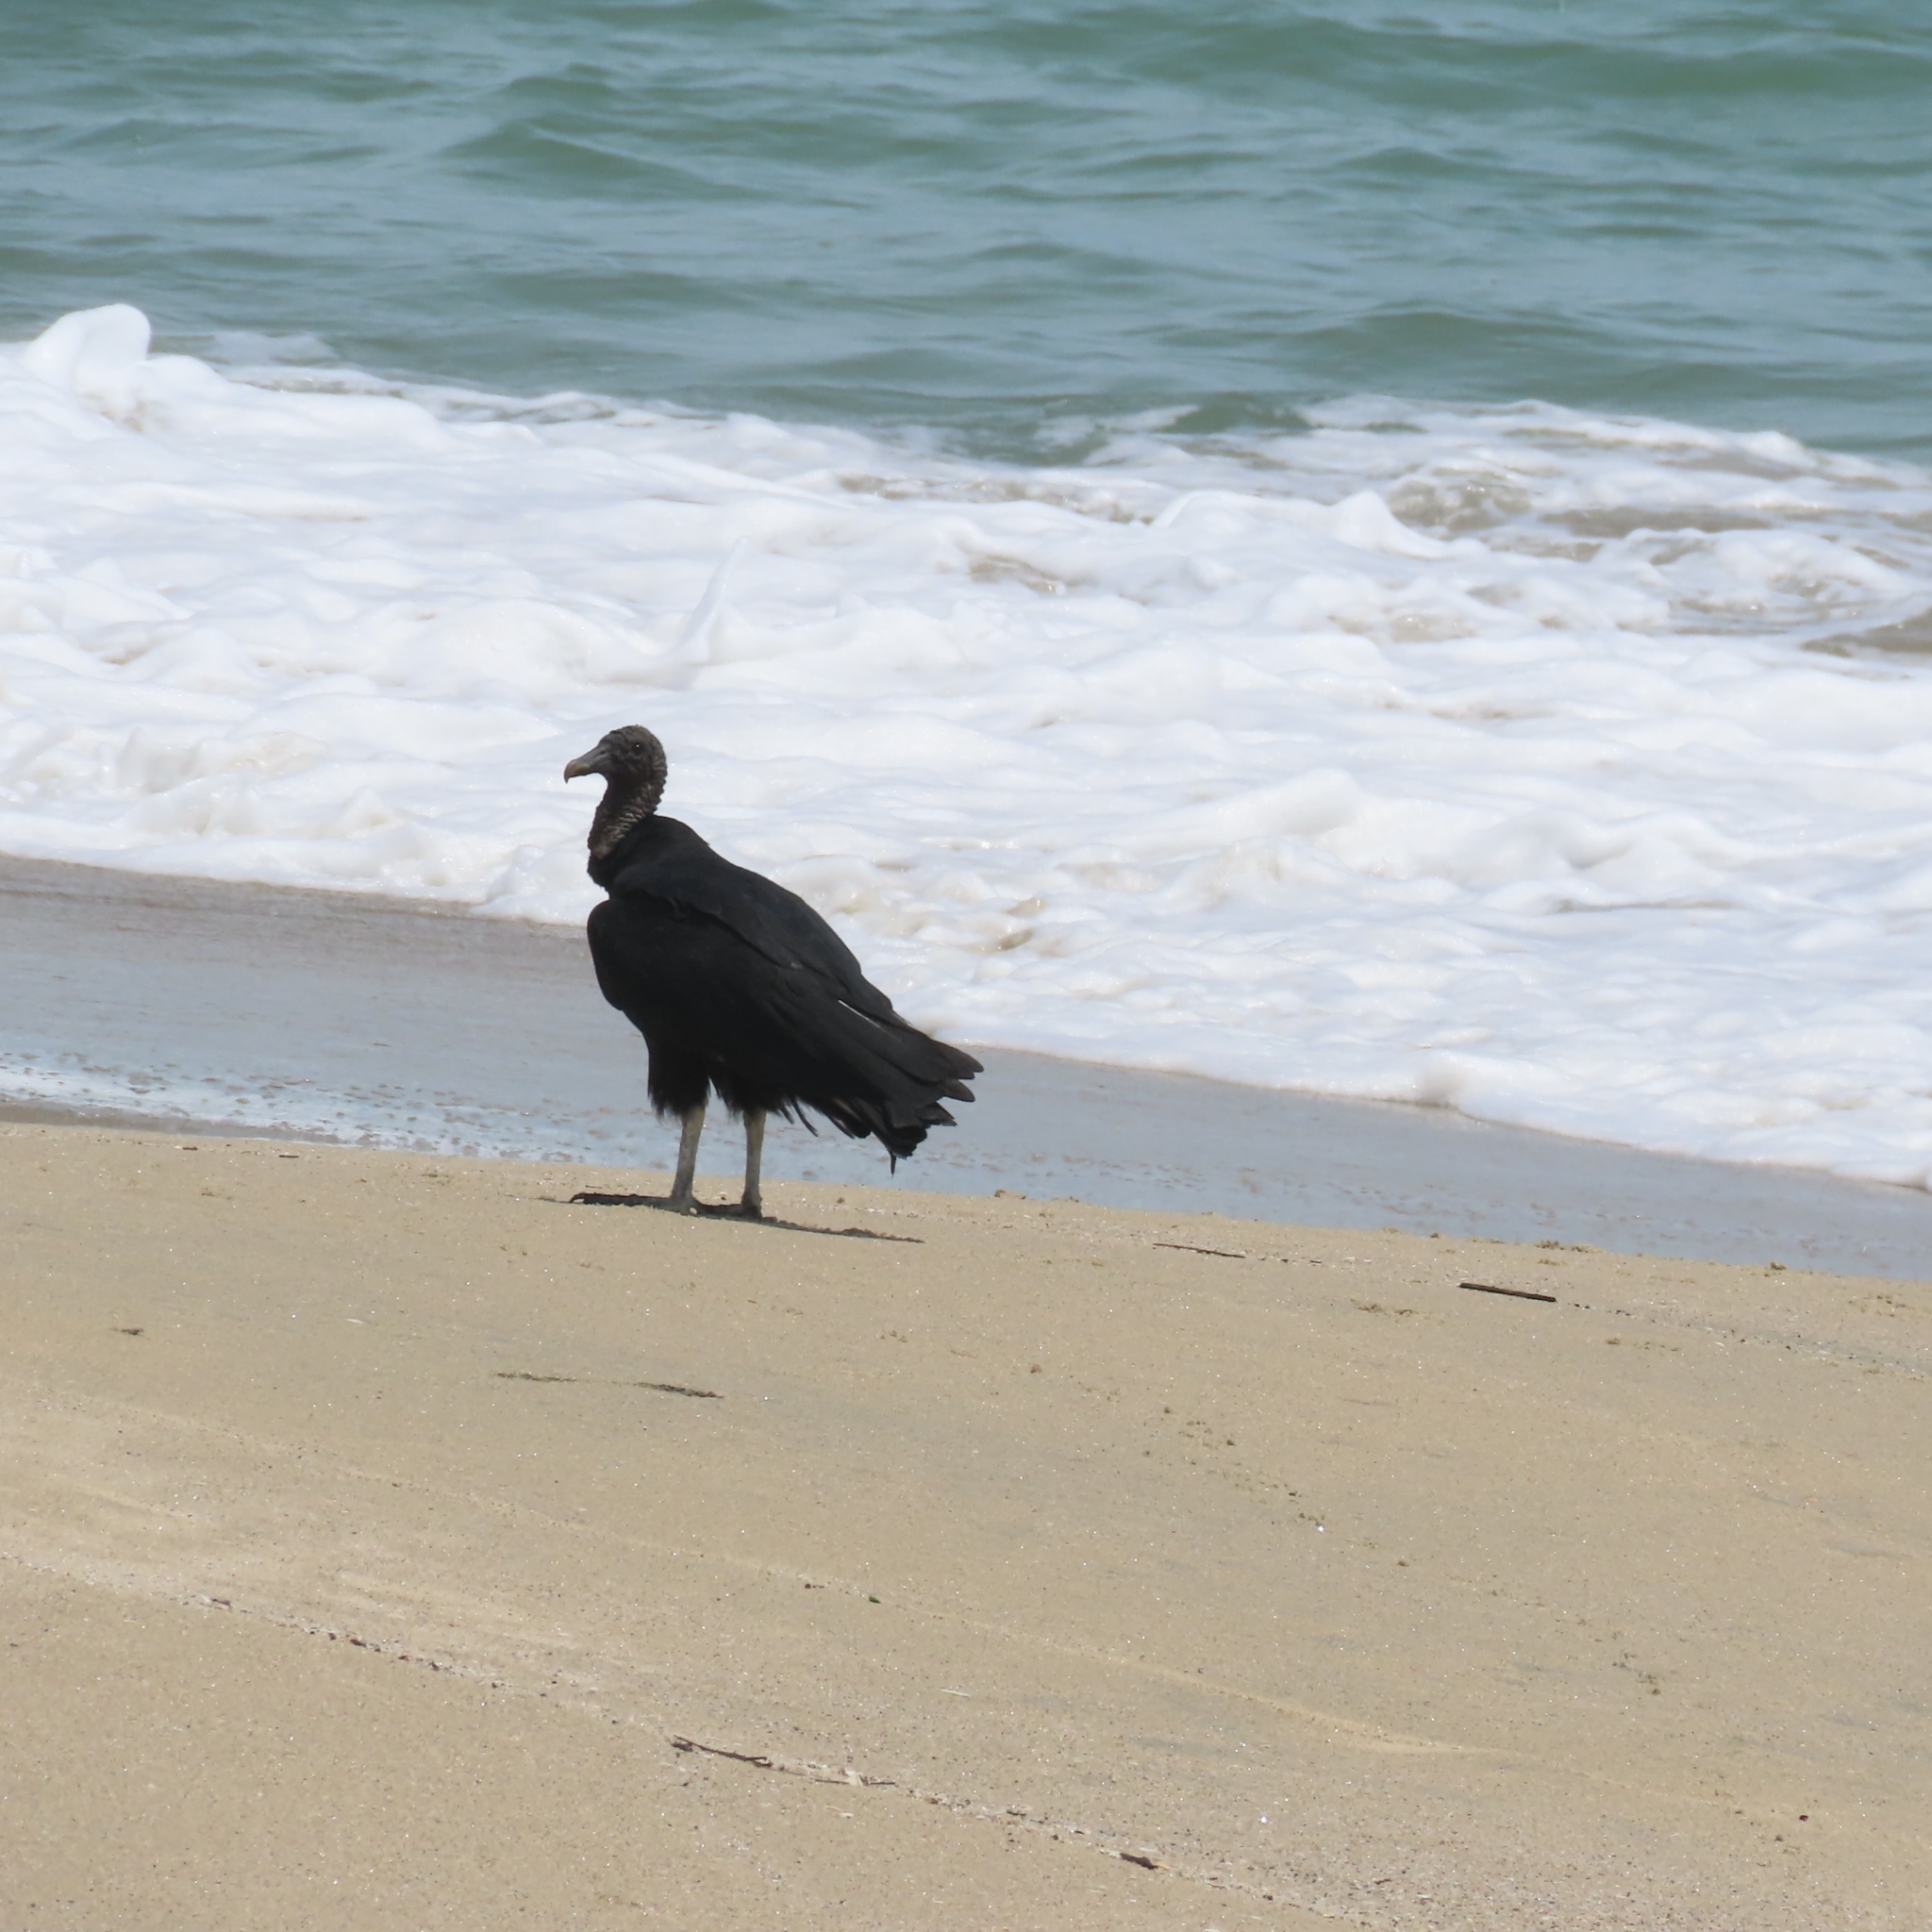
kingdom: Animalia
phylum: Chordata
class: Aves
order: Accipitriformes
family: Cathartidae
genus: Coragyps
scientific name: Coragyps atratus
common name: Black vulture
